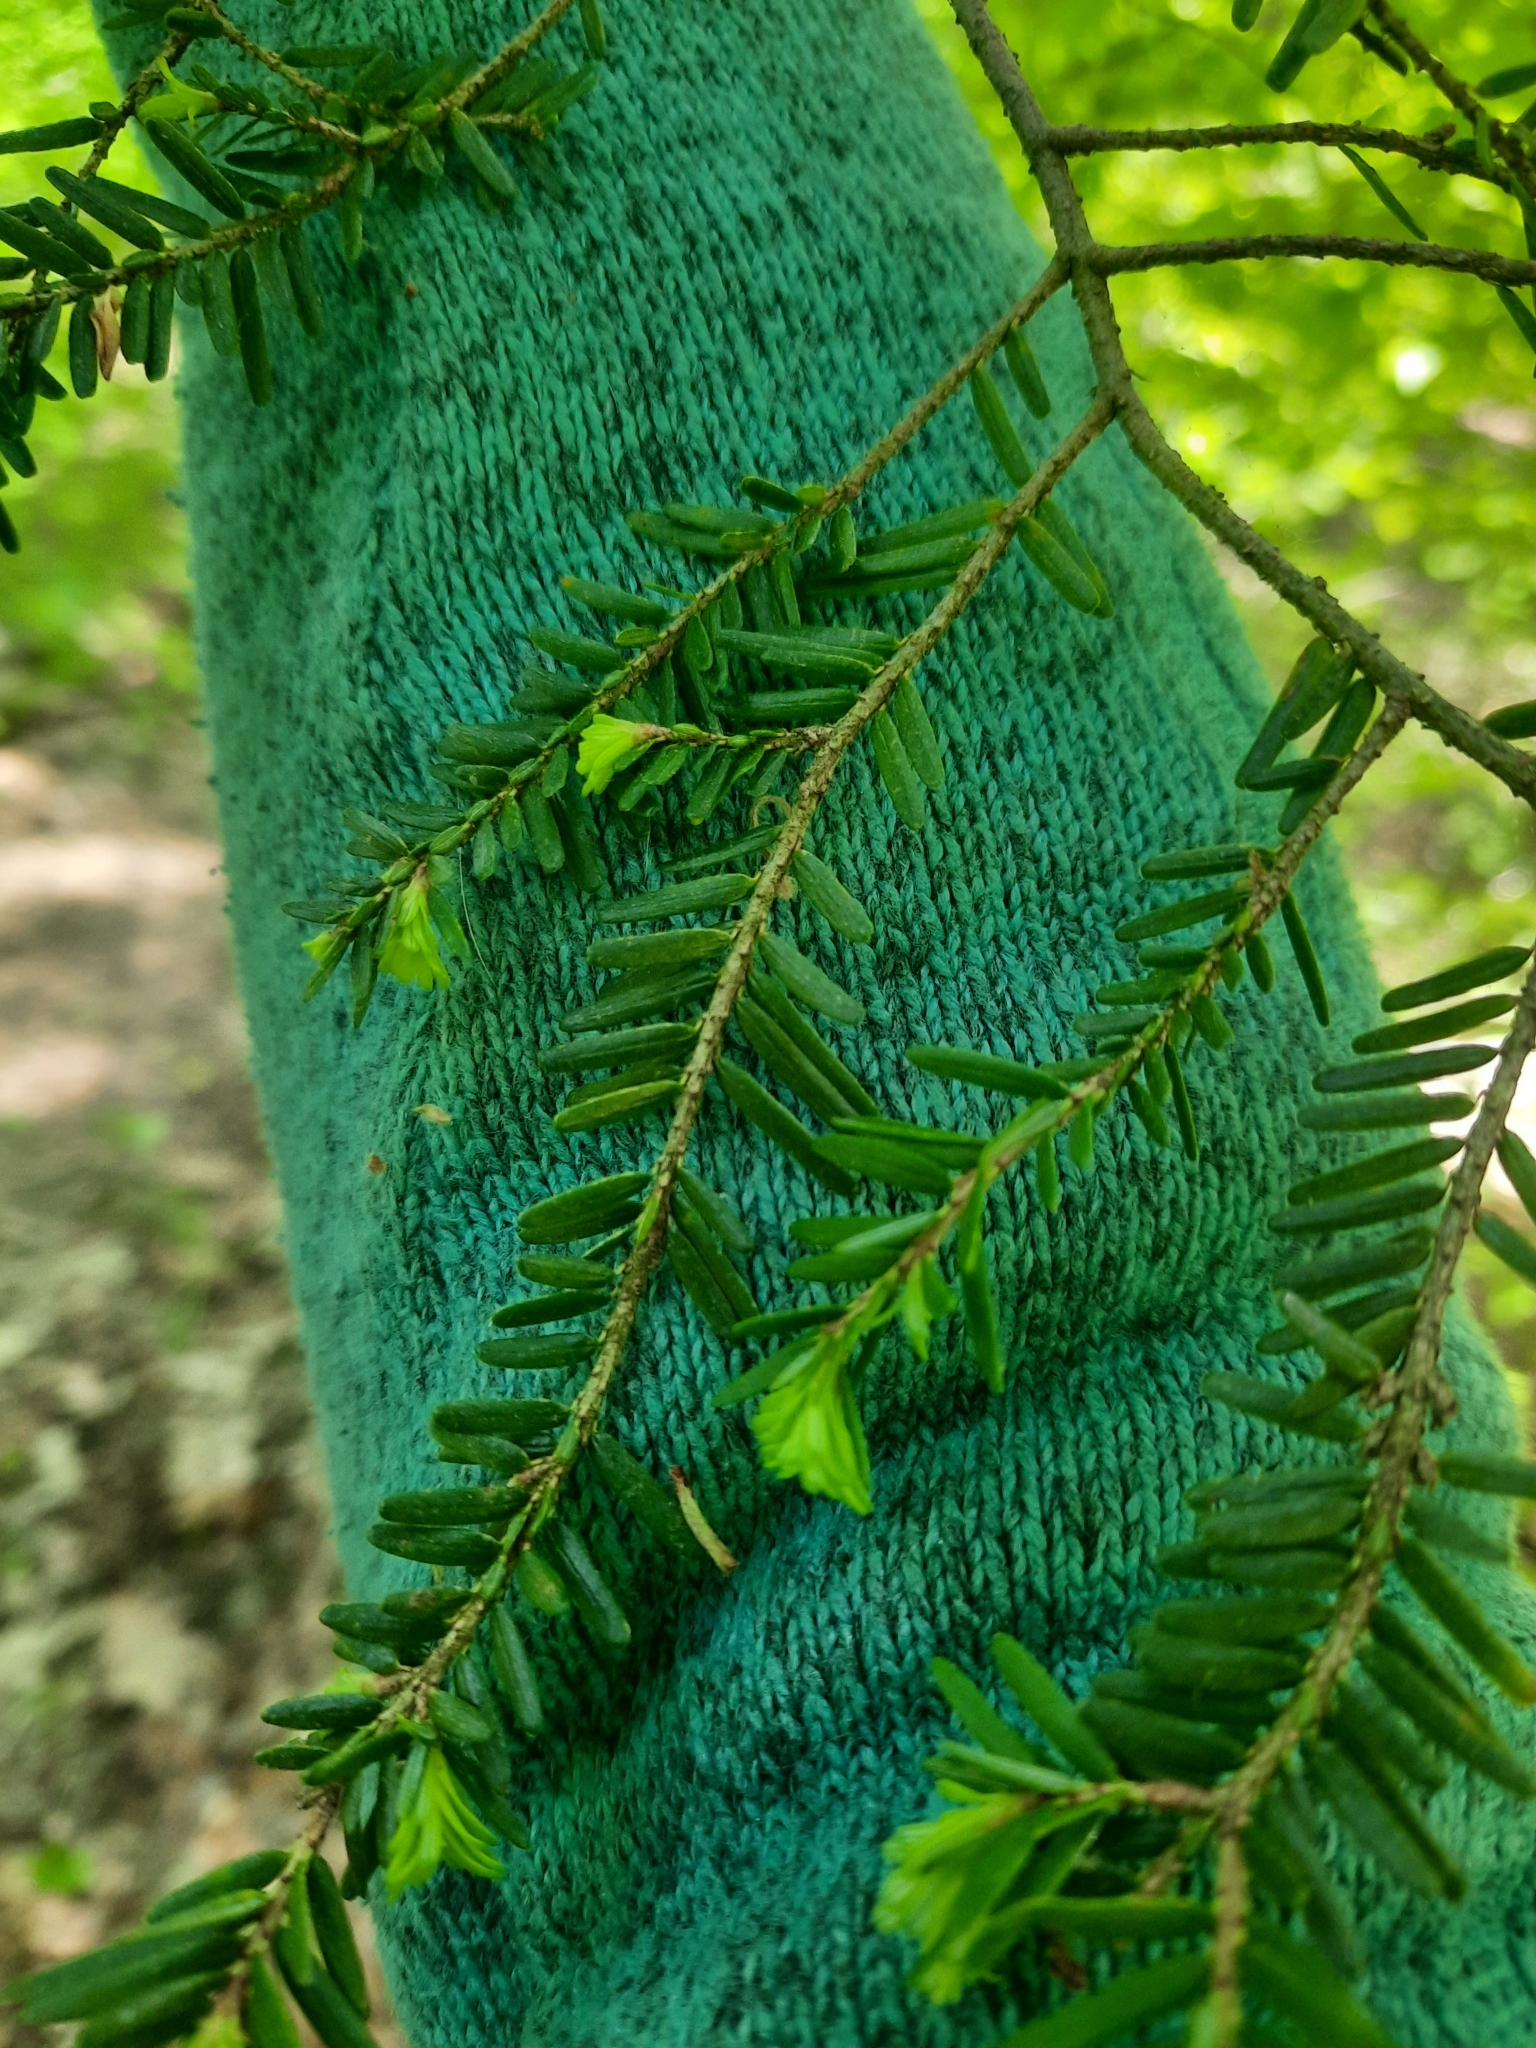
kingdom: Plantae
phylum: Tracheophyta
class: Pinopsida
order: Pinales
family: Pinaceae
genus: Tsuga
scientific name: Tsuga canadensis
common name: Eastern hemlock
